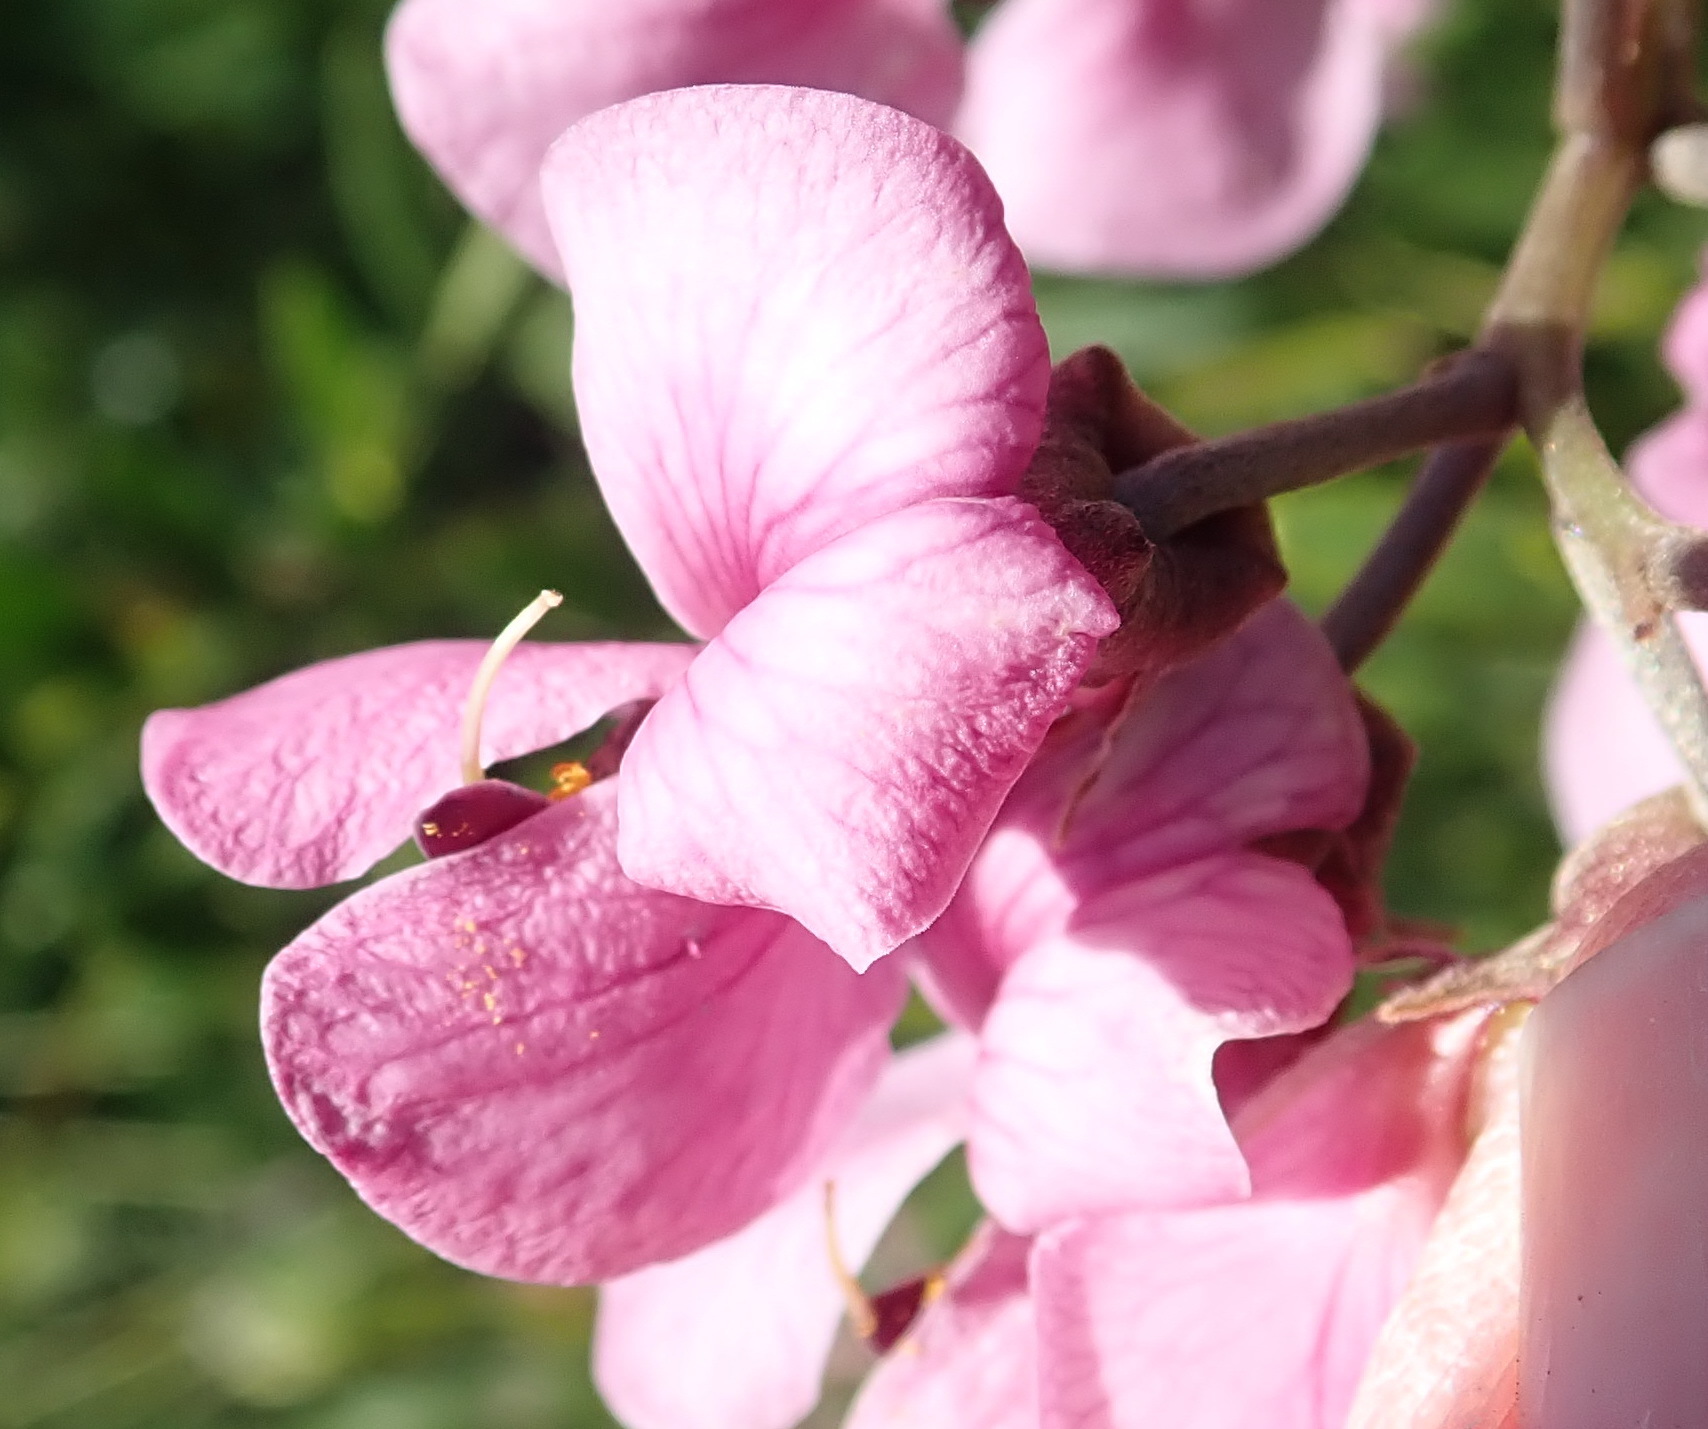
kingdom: Plantae
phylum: Tracheophyta
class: Magnoliopsida
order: Fabales
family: Fabaceae
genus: Virgilia
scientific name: Virgilia divaricata
